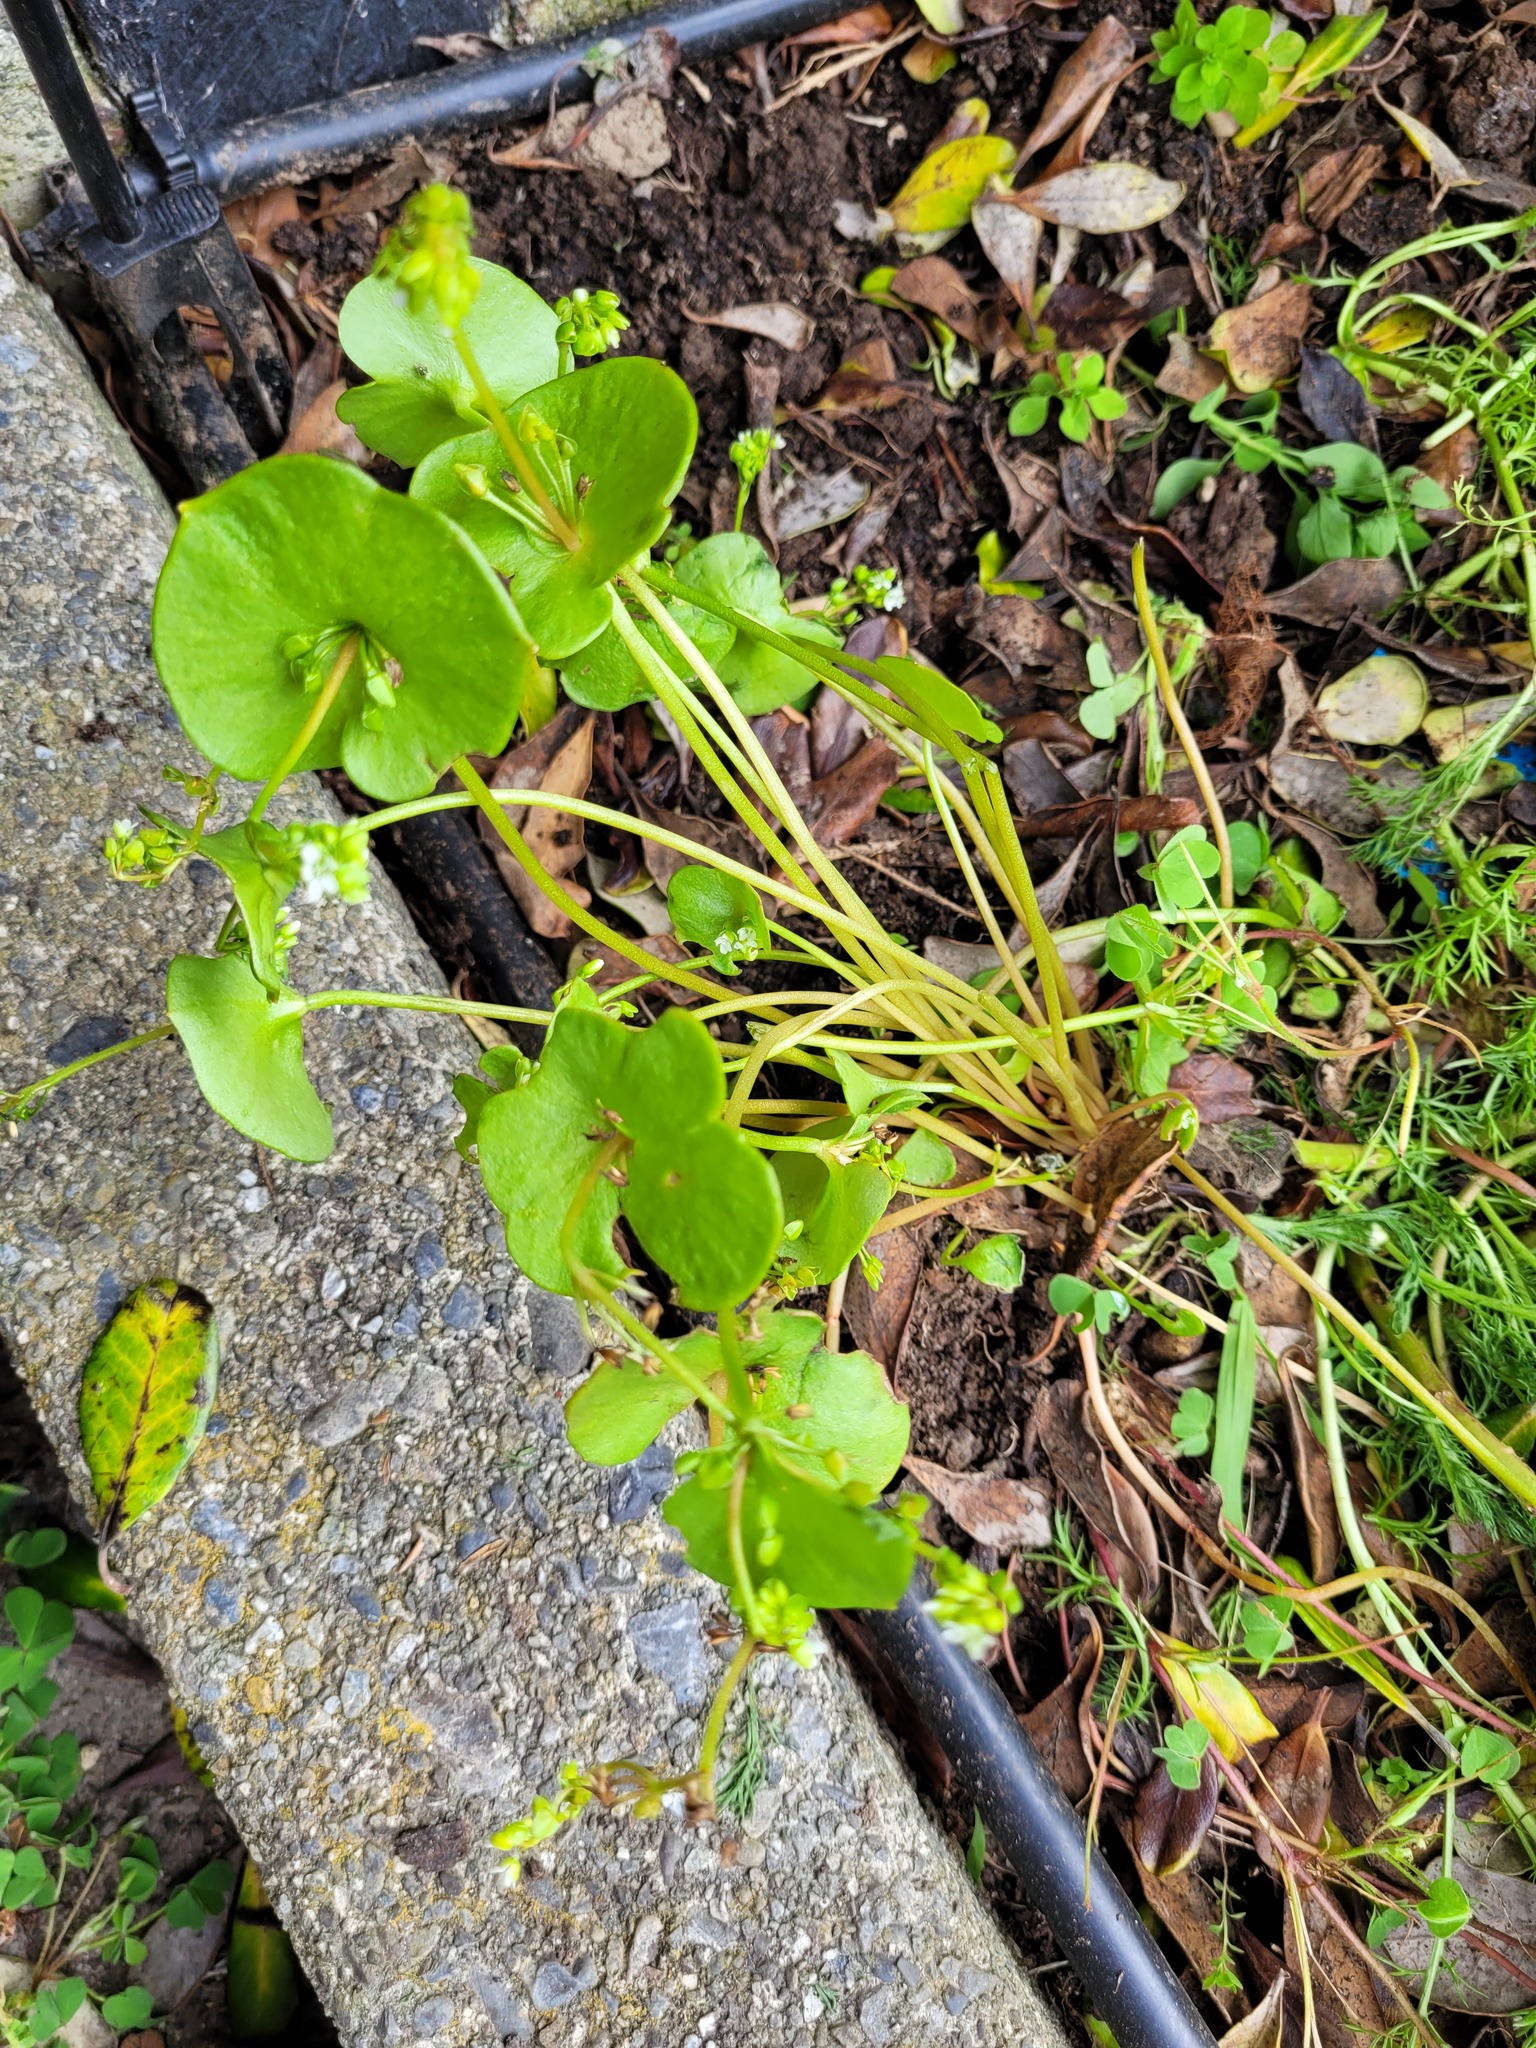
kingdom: Plantae
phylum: Tracheophyta
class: Magnoliopsida
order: Caryophyllales
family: Montiaceae
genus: Claytonia
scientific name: Claytonia perfoliata
